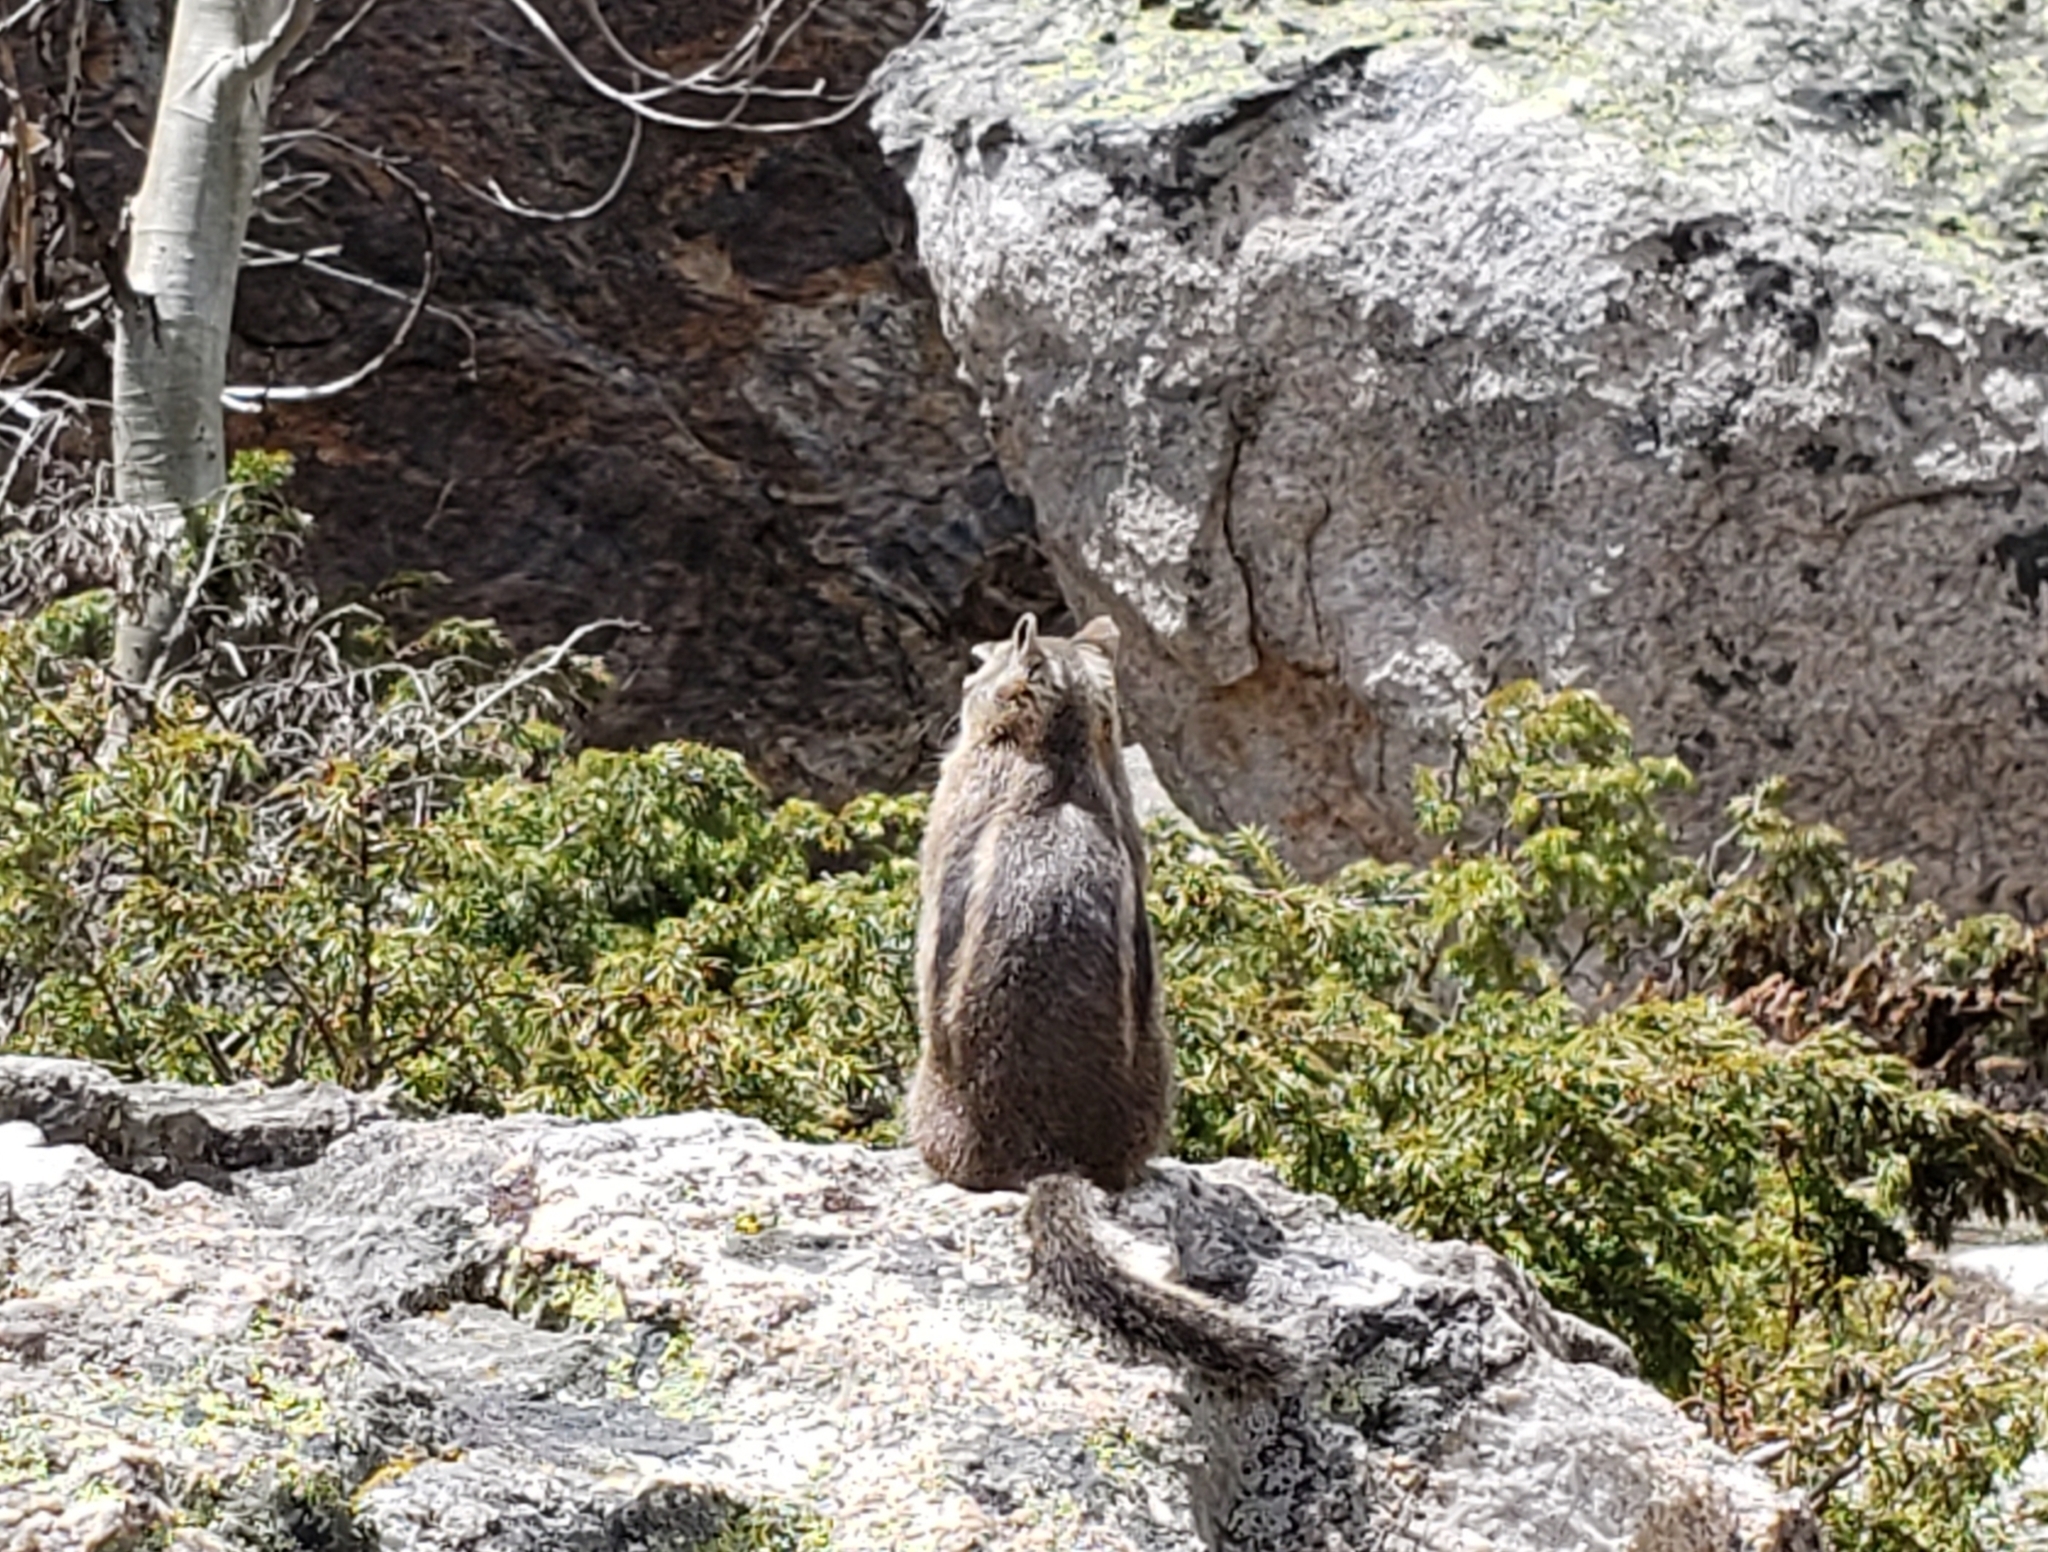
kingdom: Animalia
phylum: Chordata
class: Mammalia
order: Rodentia
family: Sciuridae
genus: Callospermophilus
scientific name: Callospermophilus lateralis
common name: Golden-mantled ground squirrel
